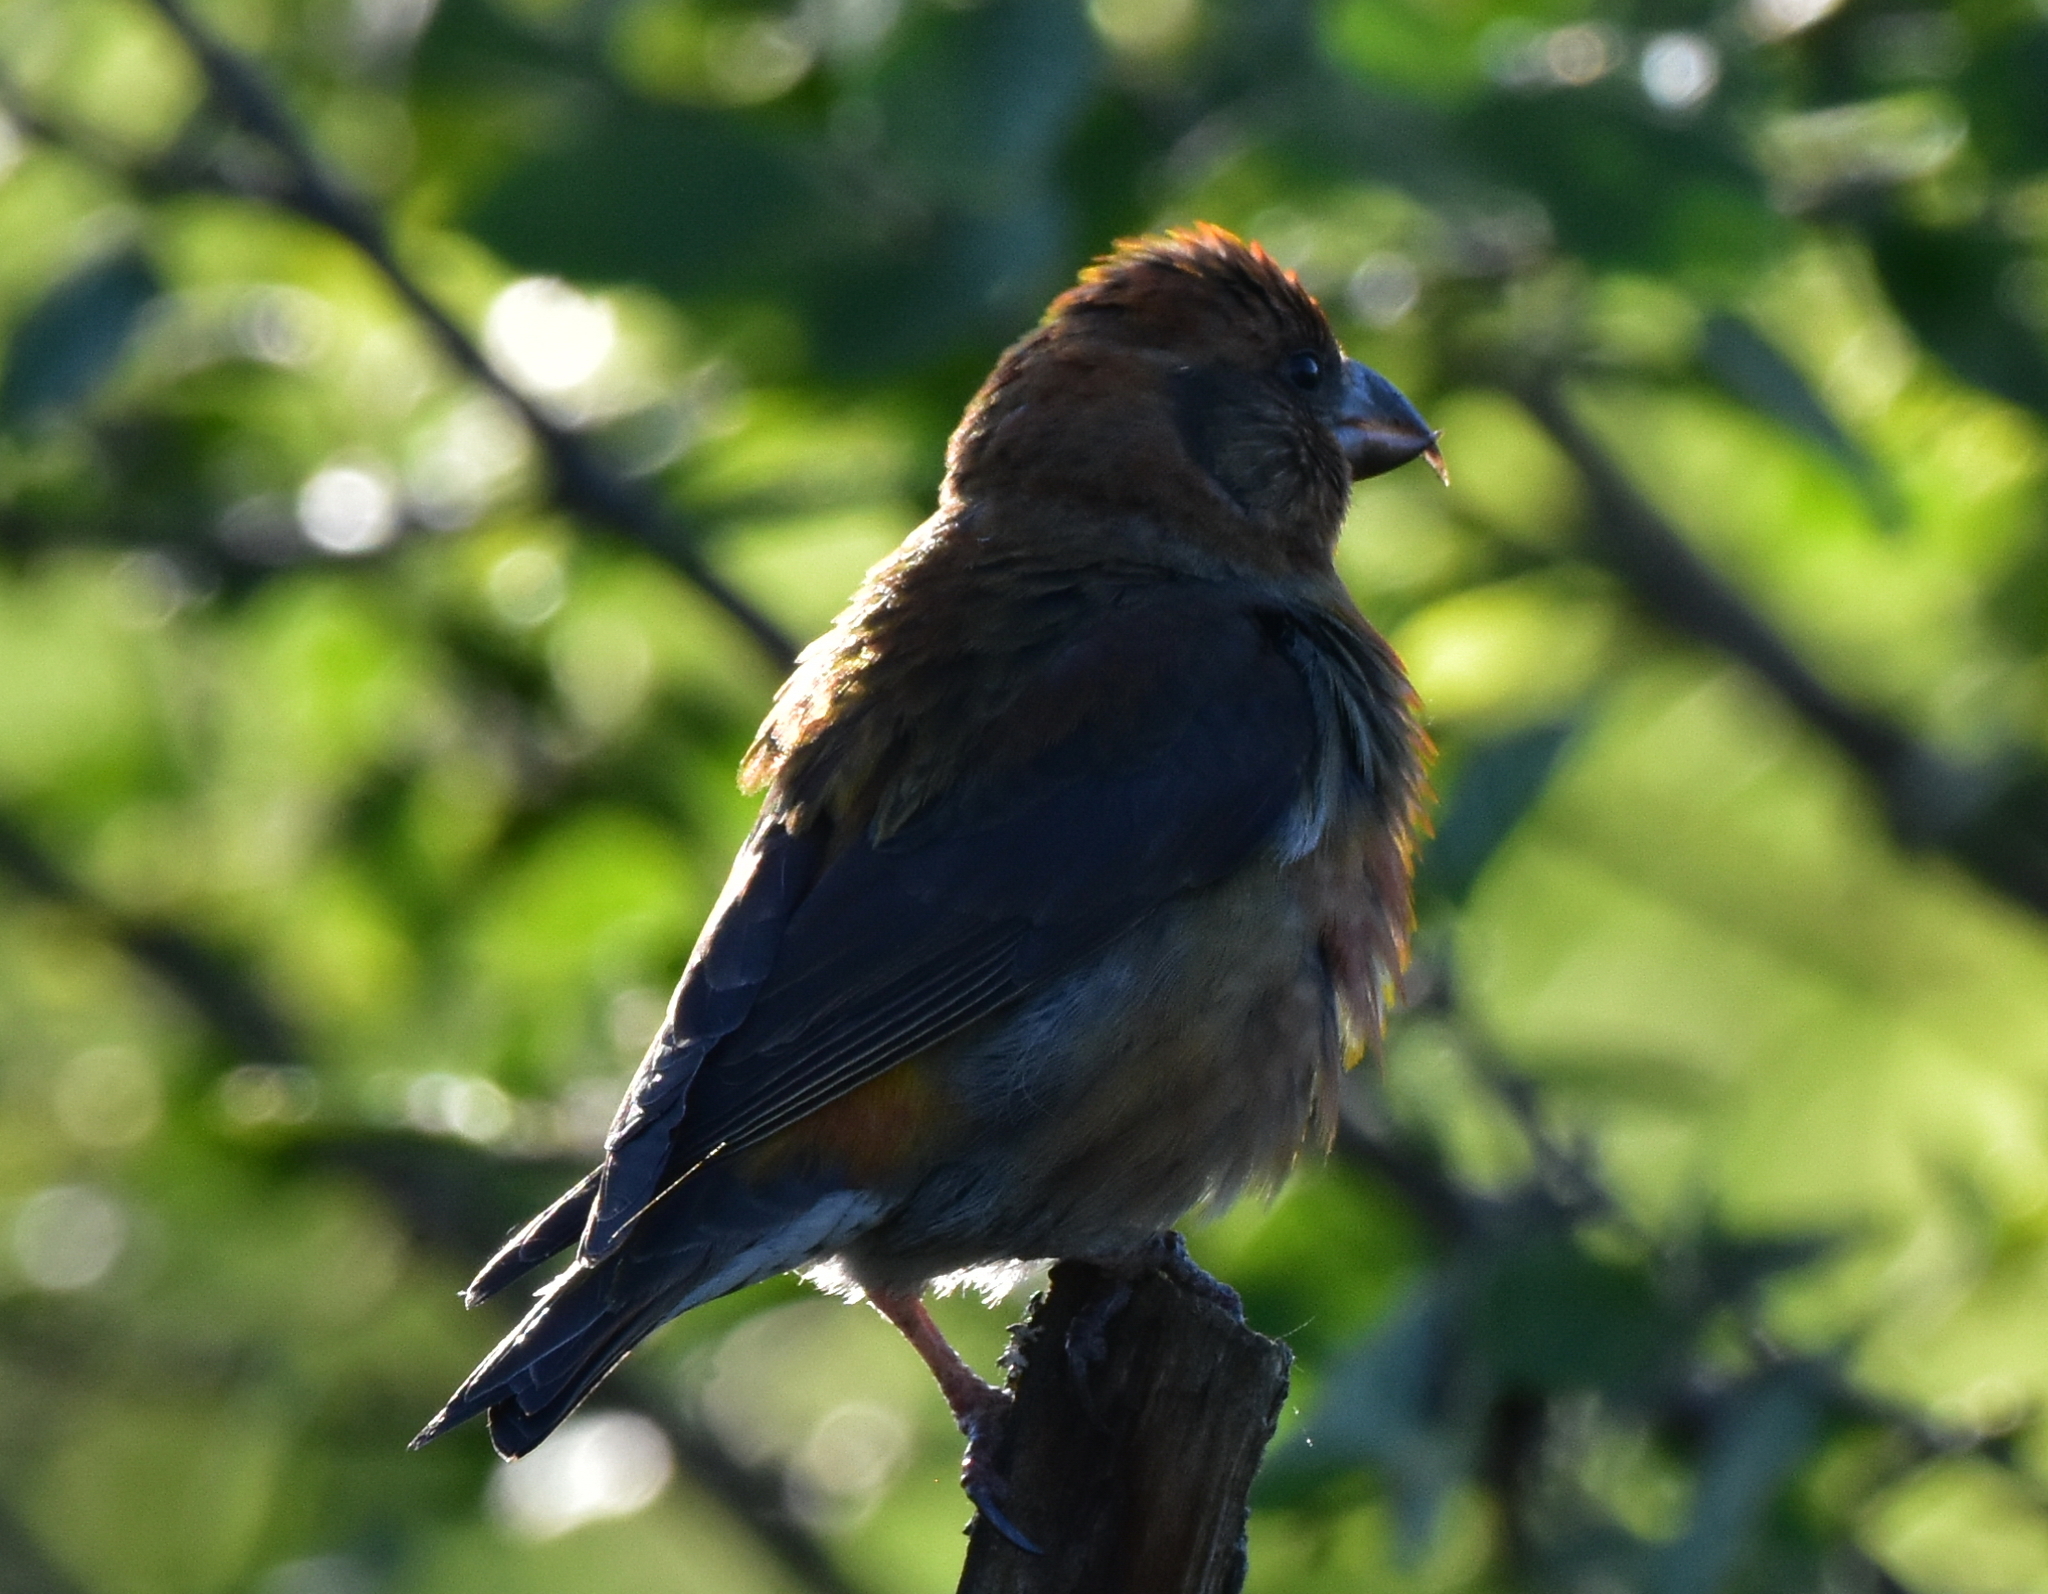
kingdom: Animalia
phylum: Chordata
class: Aves
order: Passeriformes
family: Fringillidae
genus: Loxia
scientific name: Loxia curvirostra
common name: Red crossbill
